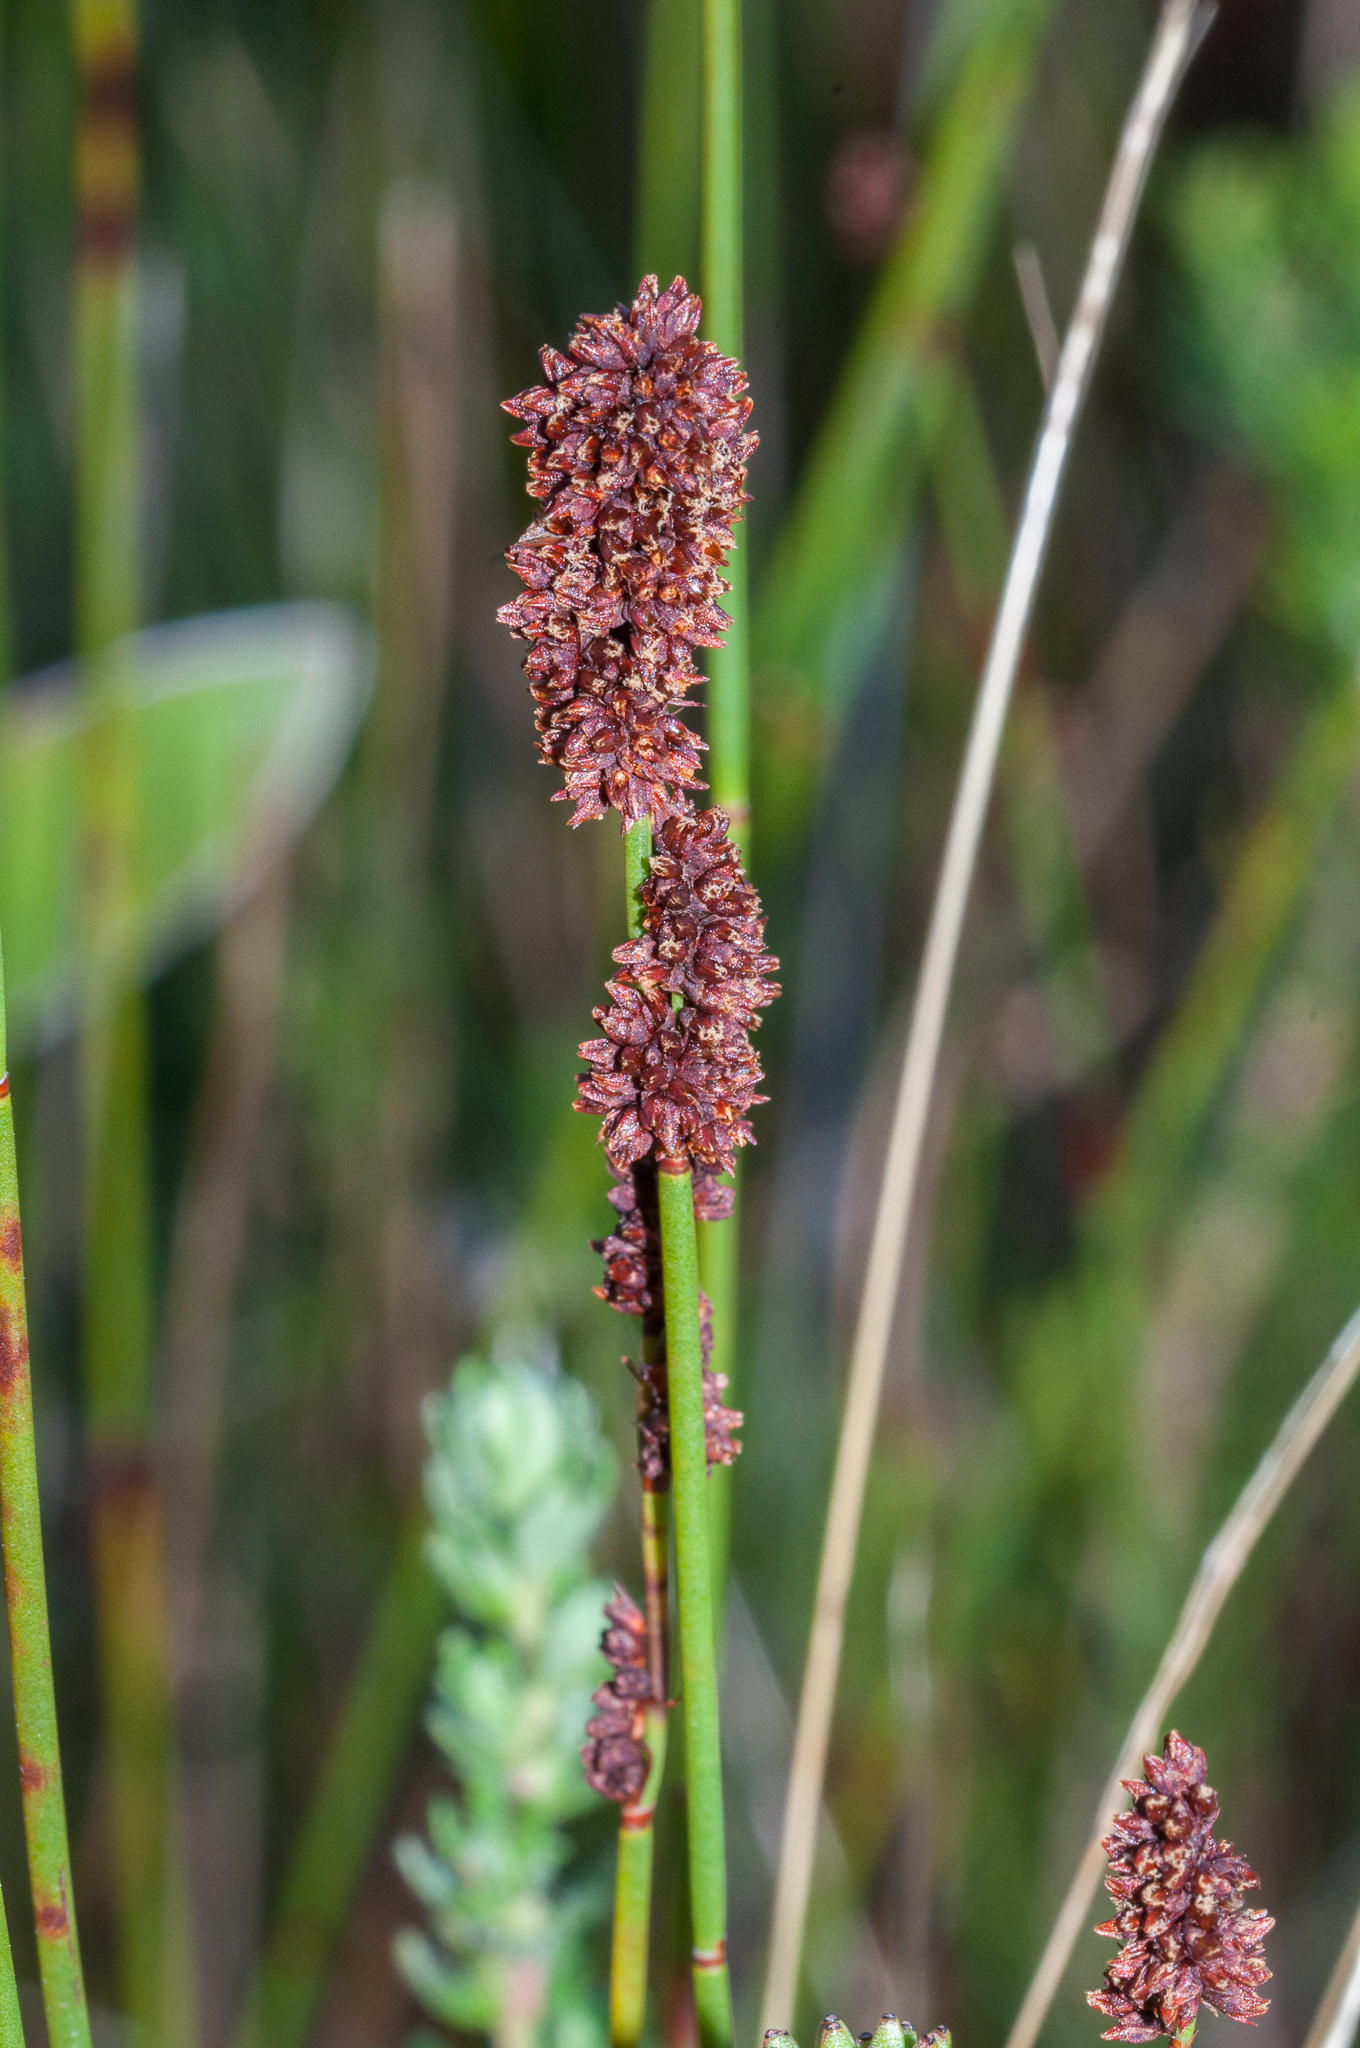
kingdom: Plantae
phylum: Tracheophyta
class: Liliopsida
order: Poales
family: Restionaceae
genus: Elegia
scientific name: Elegia nuda
